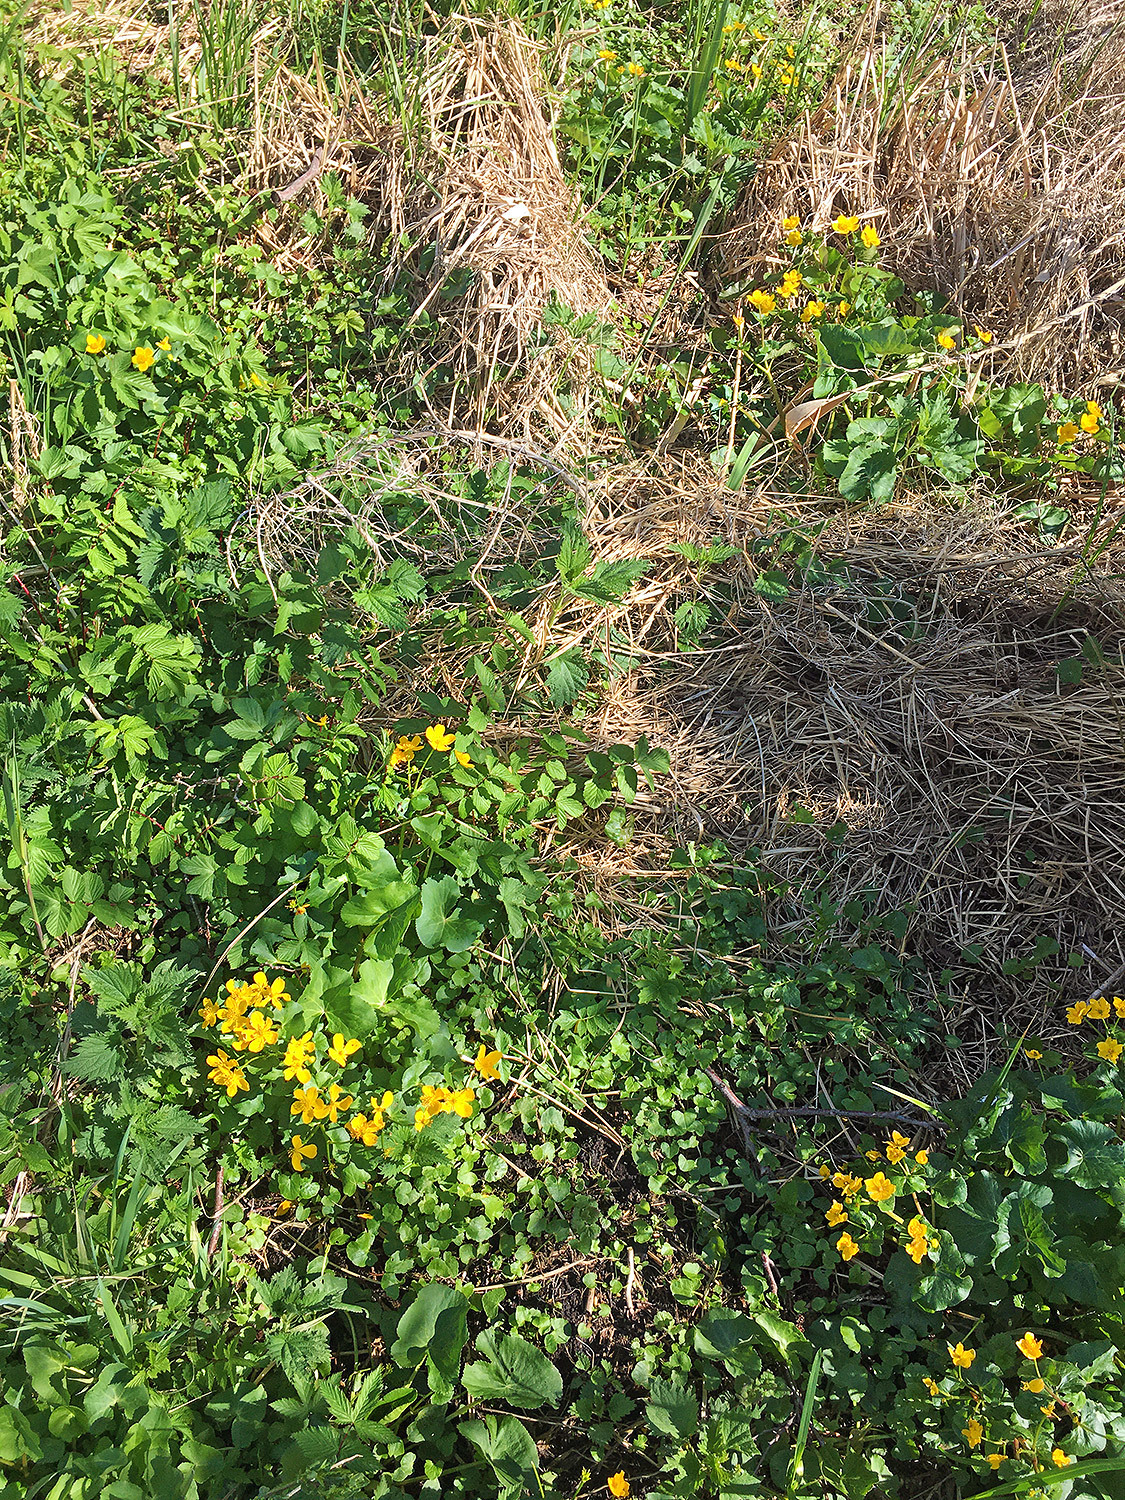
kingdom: Plantae
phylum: Tracheophyta
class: Magnoliopsida
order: Ranunculales
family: Ranunculaceae
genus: Caltha
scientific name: Caltha palustris
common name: Marsh marigold
